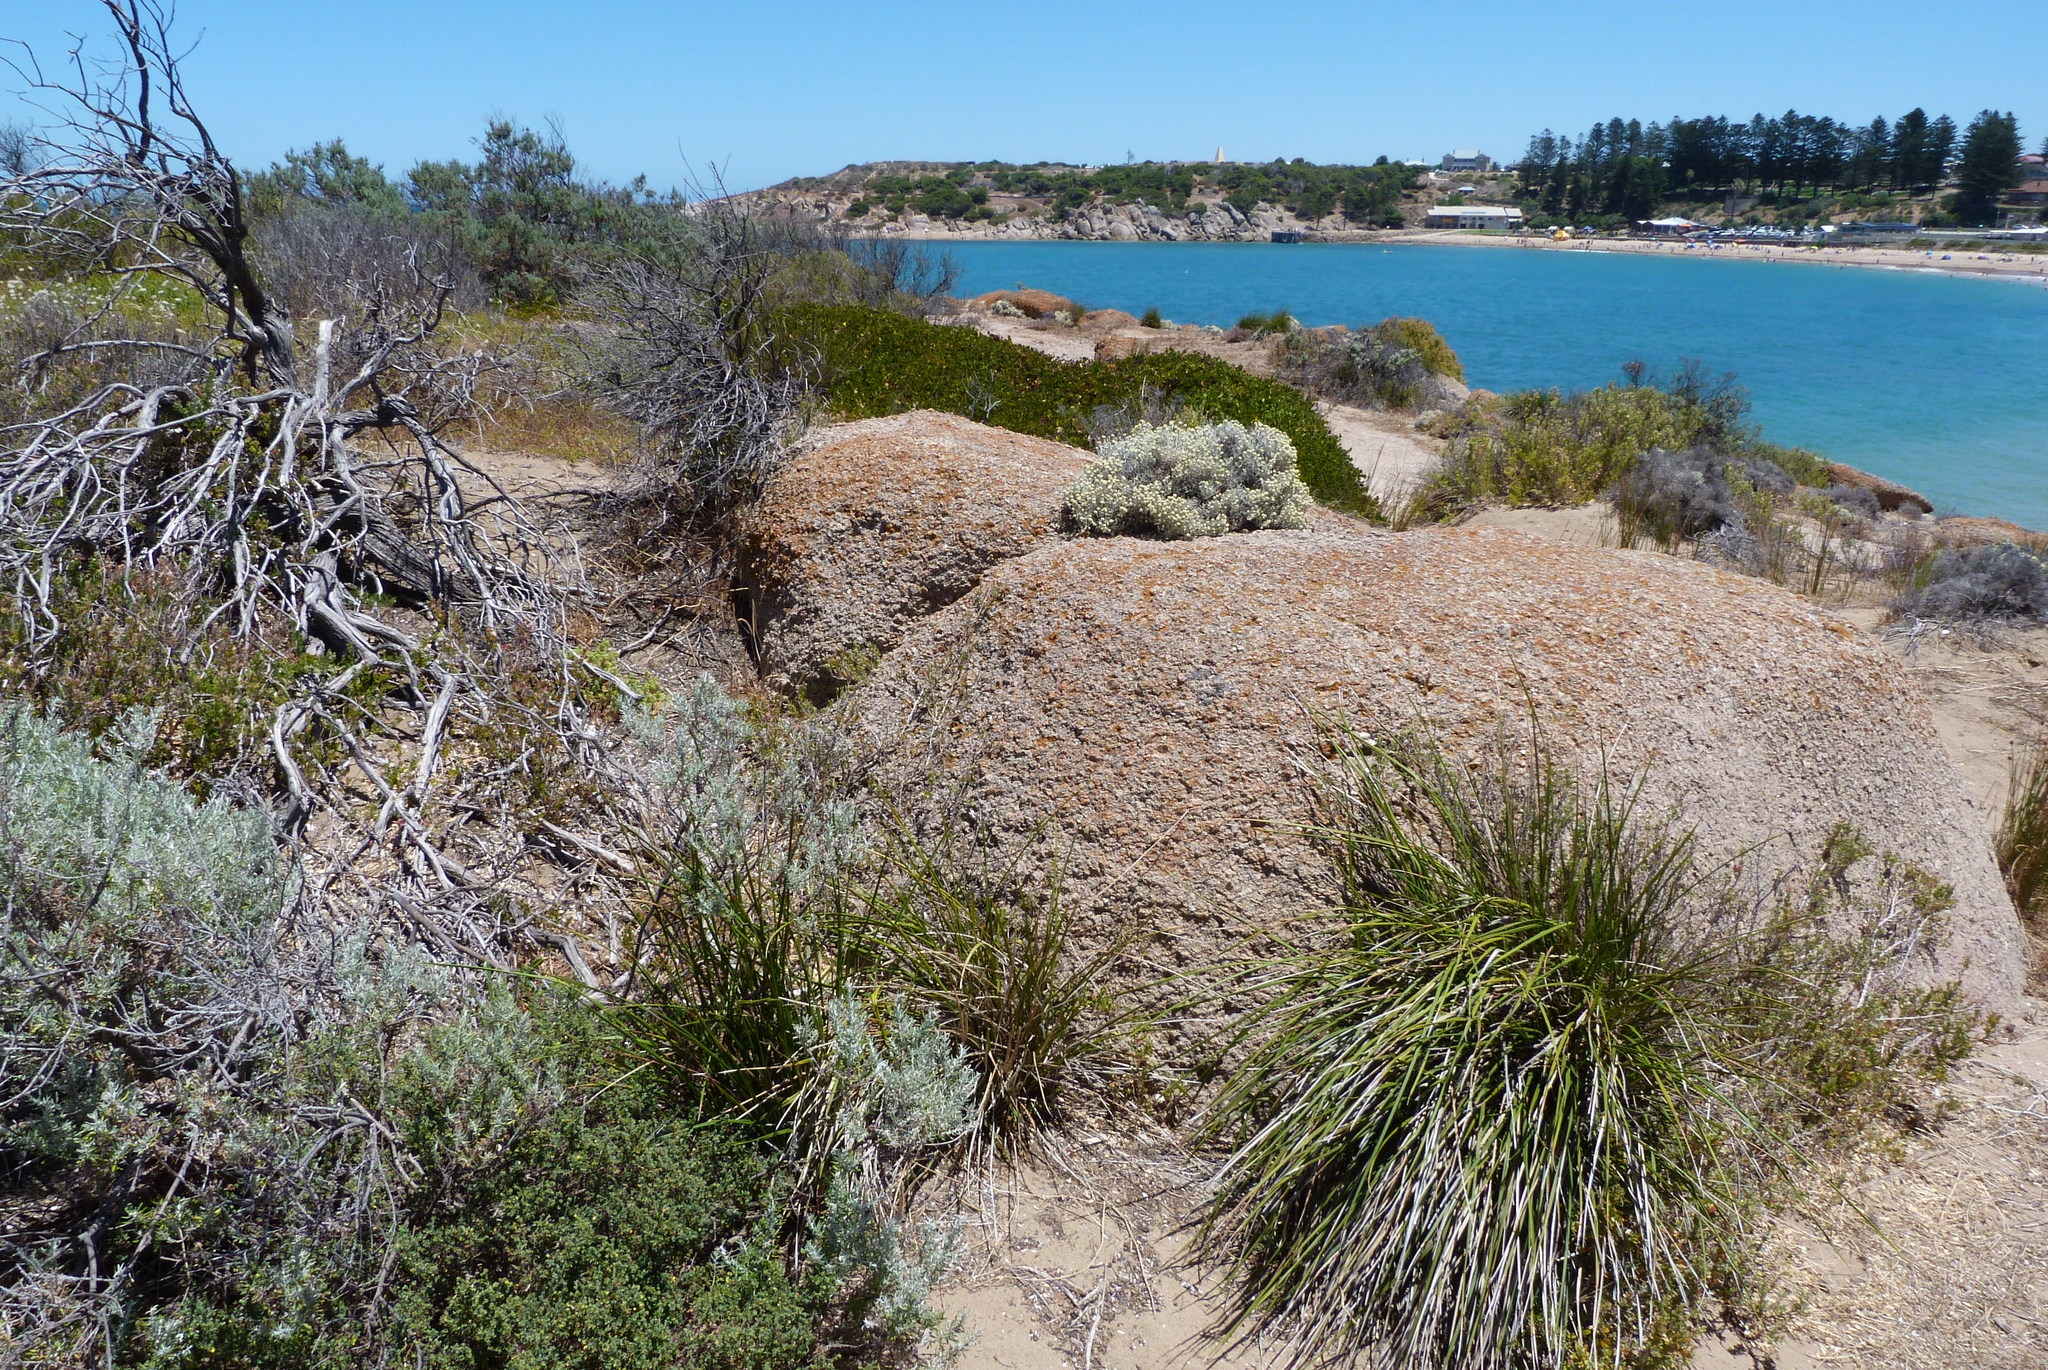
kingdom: Plantae
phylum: Tracheophyta
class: Magnoliopsida
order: Asterales
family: Asteraceae
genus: Calocephalus
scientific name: Calocephalus brownii
